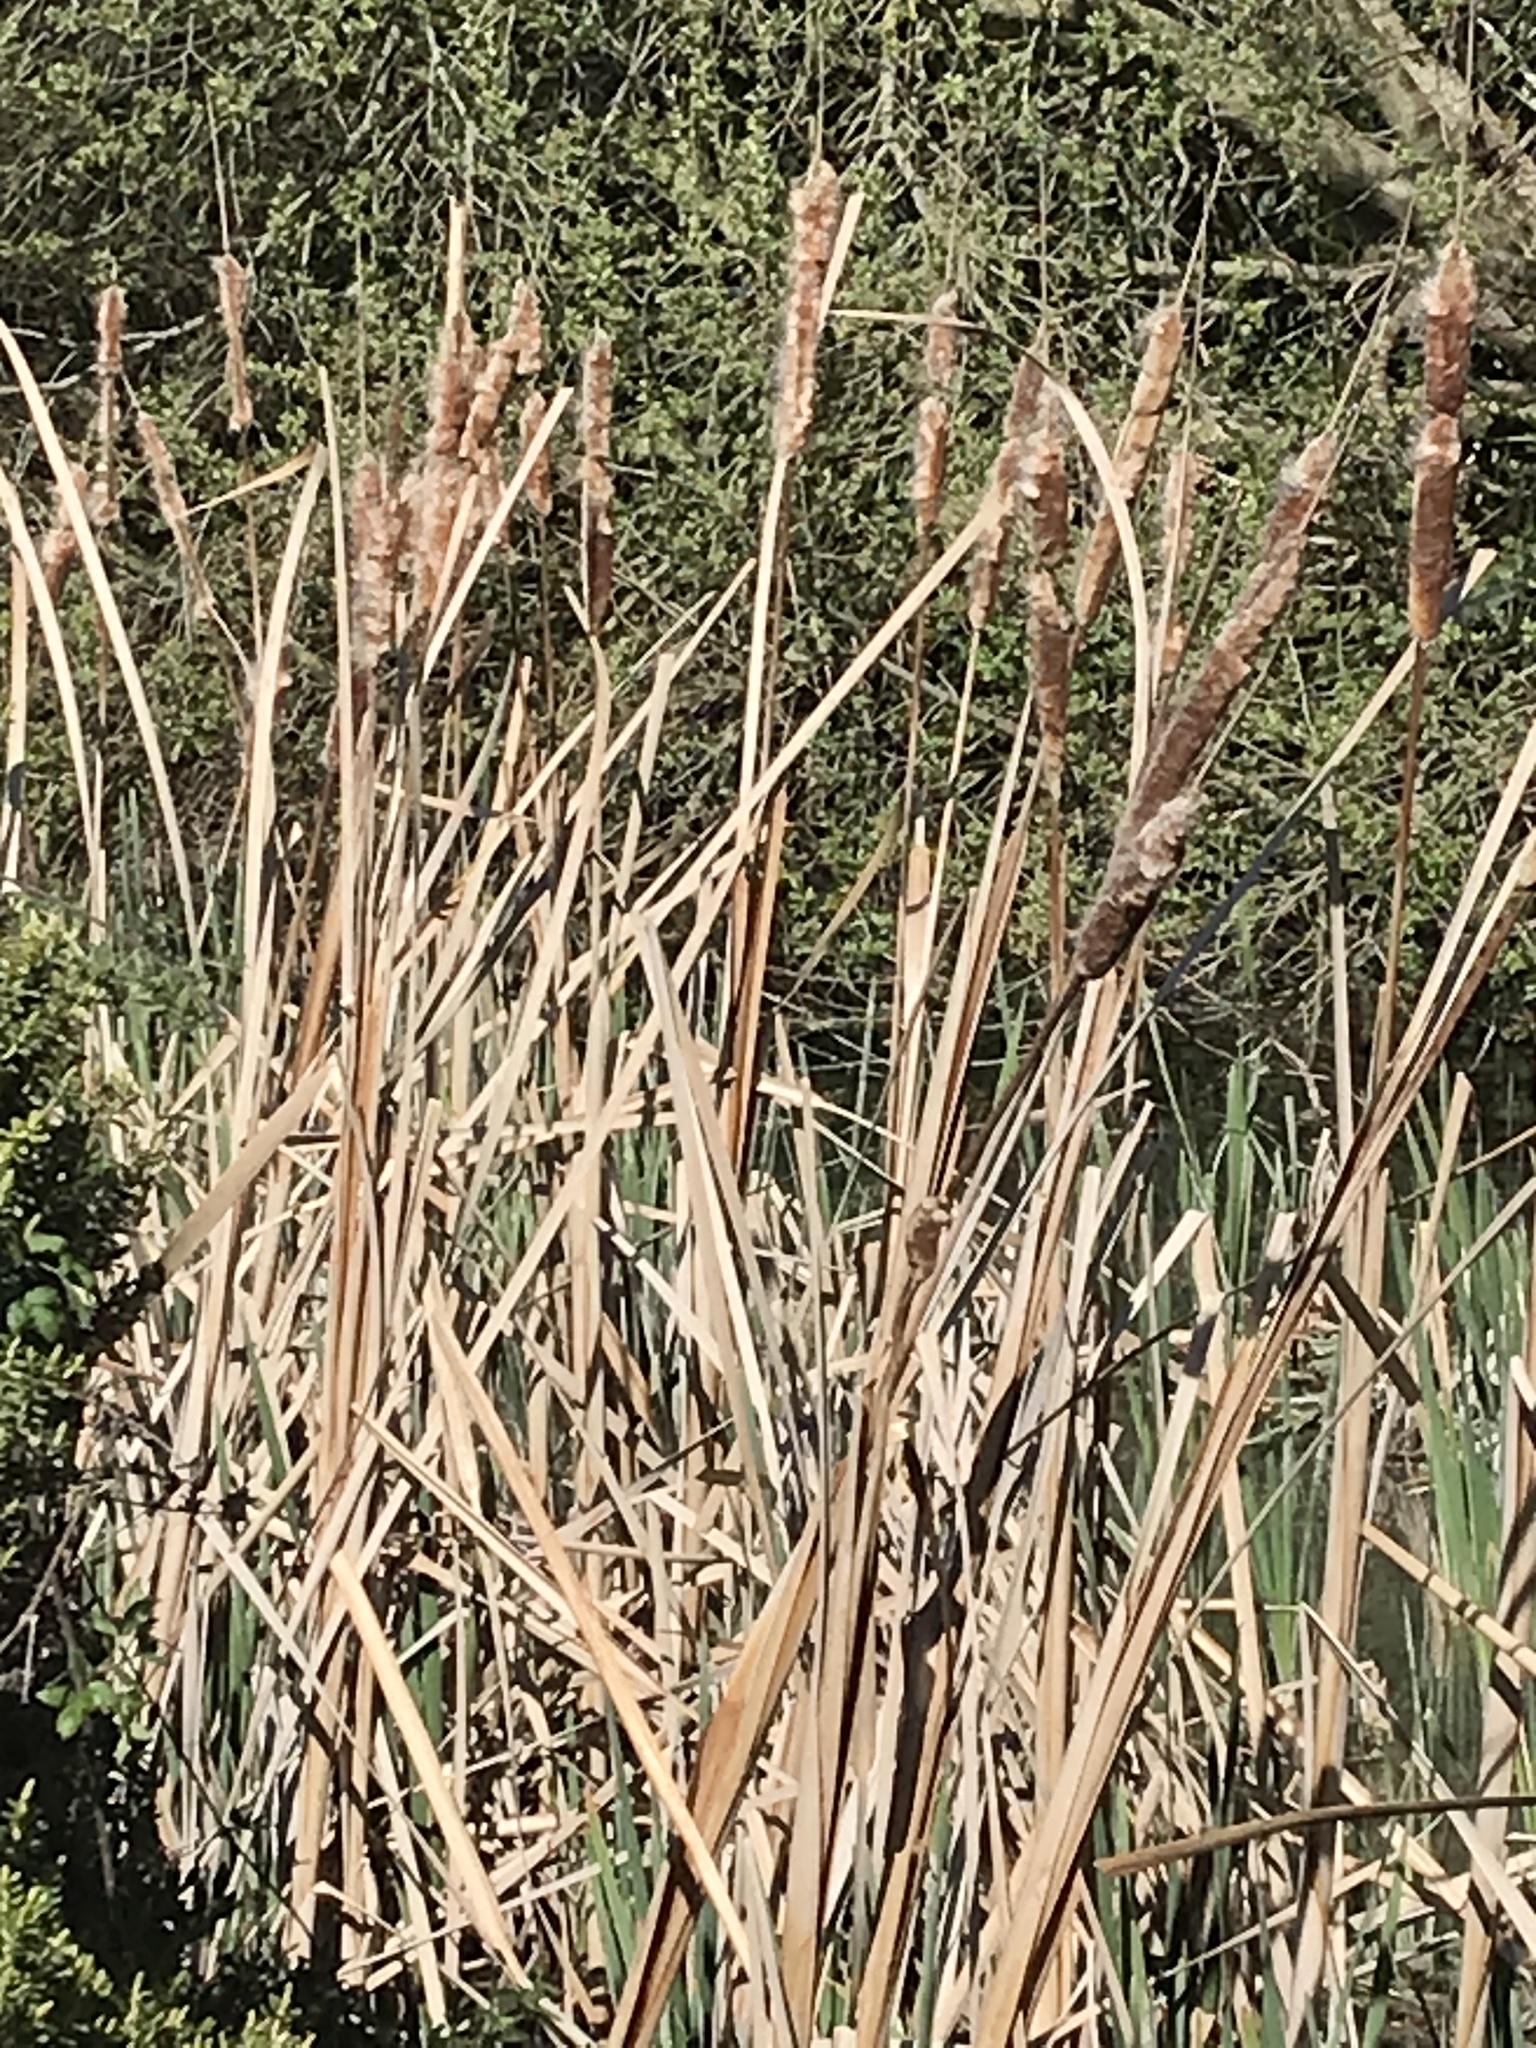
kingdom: Plantae
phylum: Tracheophyta
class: Liliopsida
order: Poales
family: Typhaceae
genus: Typha
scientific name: Typha orientalis
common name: Bullrush
